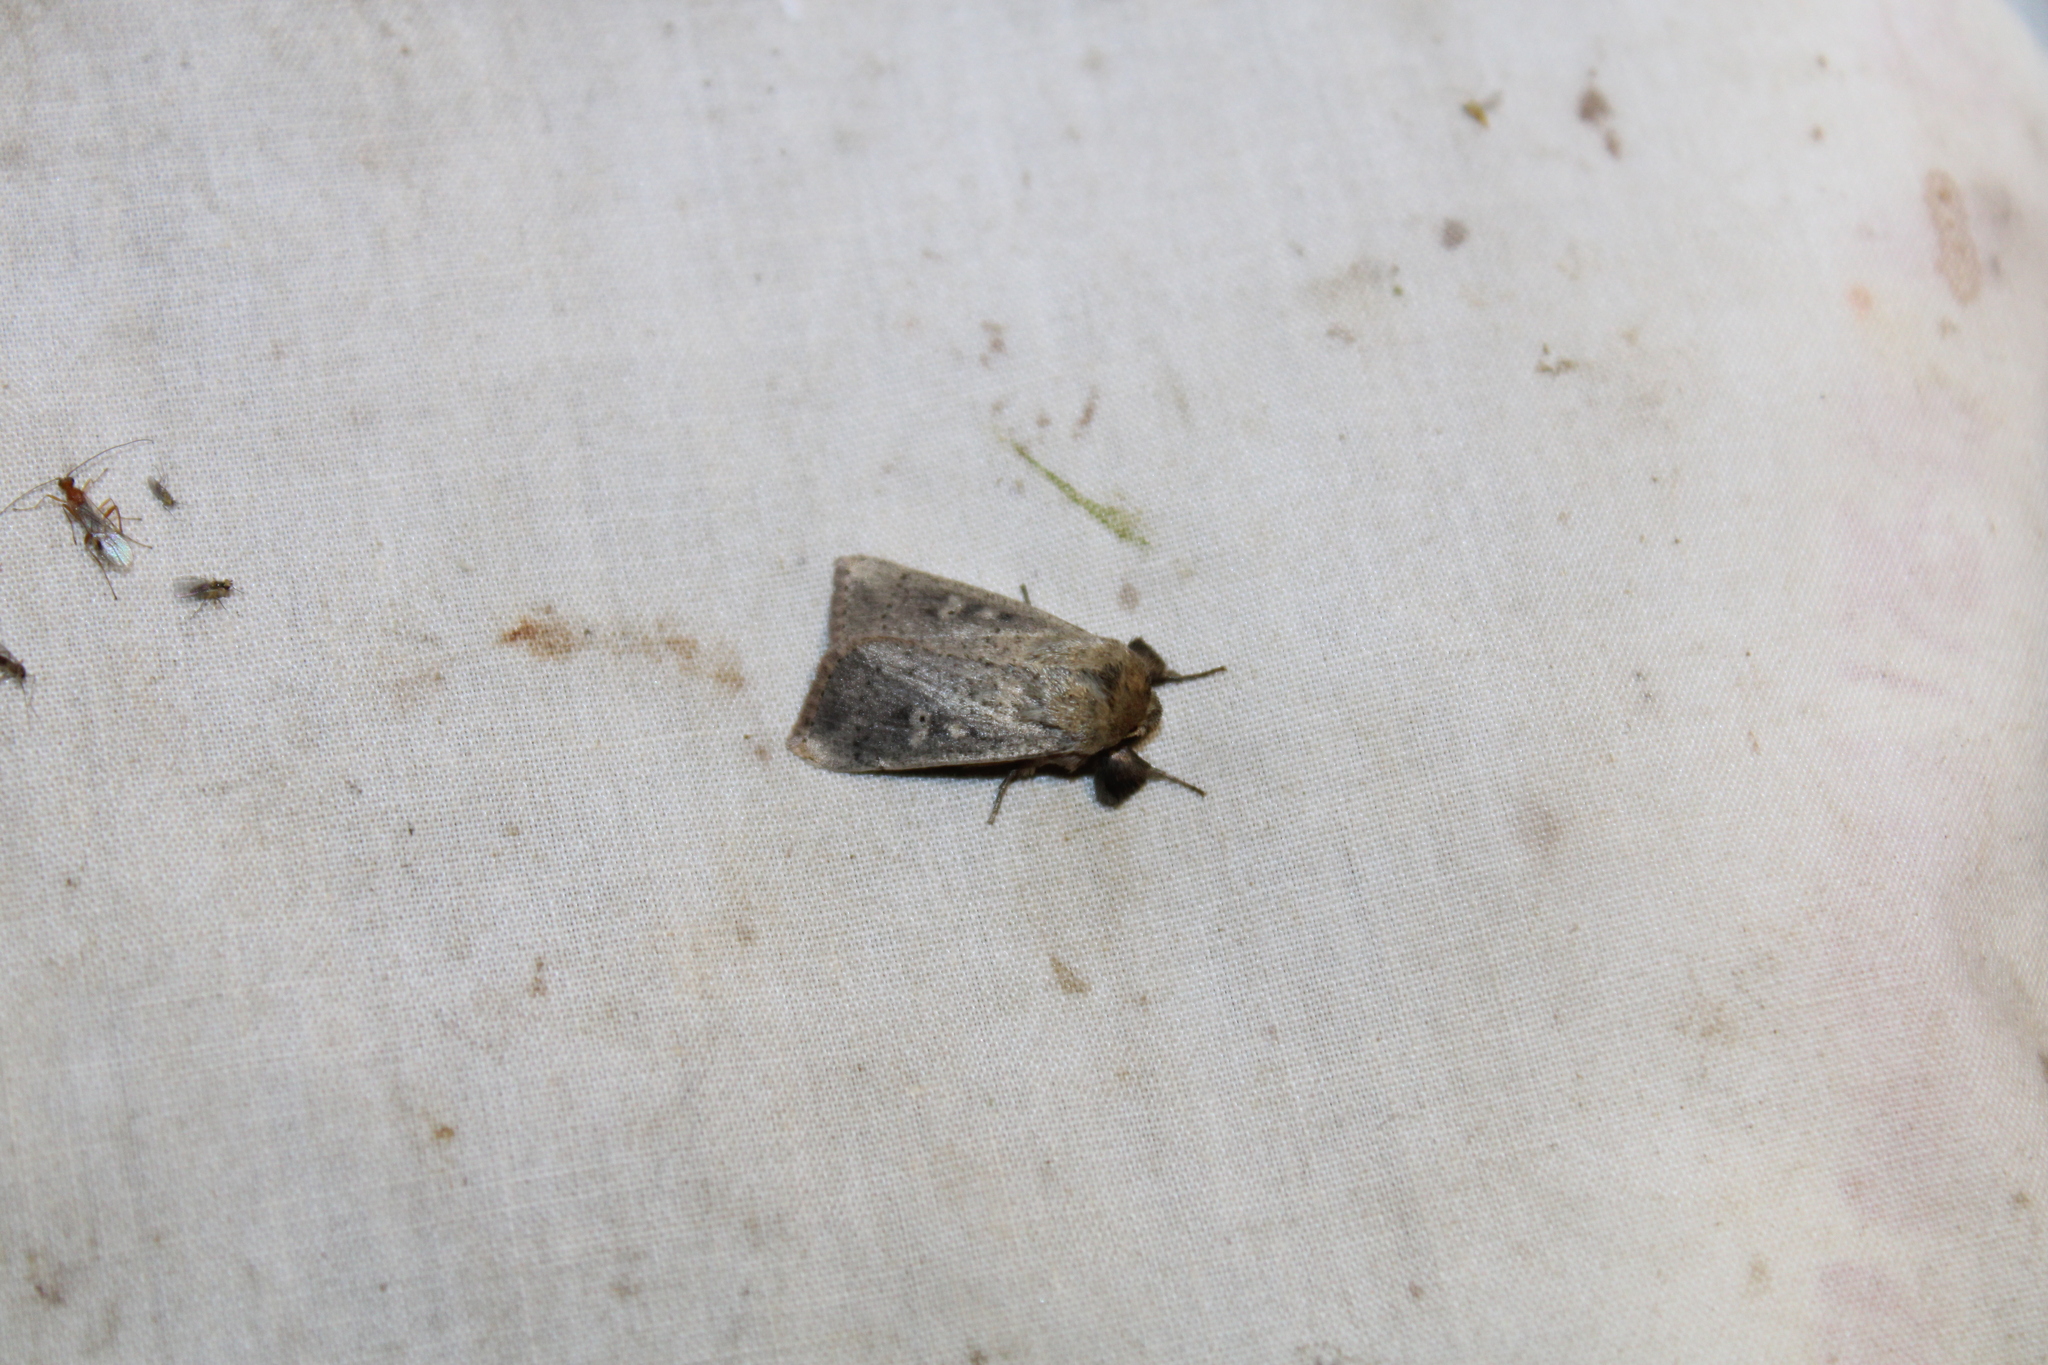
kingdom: Animalia
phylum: Arthropoda
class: Insecta
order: Lepidoptera
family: Noctuidae
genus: Leucania
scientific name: Leucania ursula
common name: Ursula wainscot
